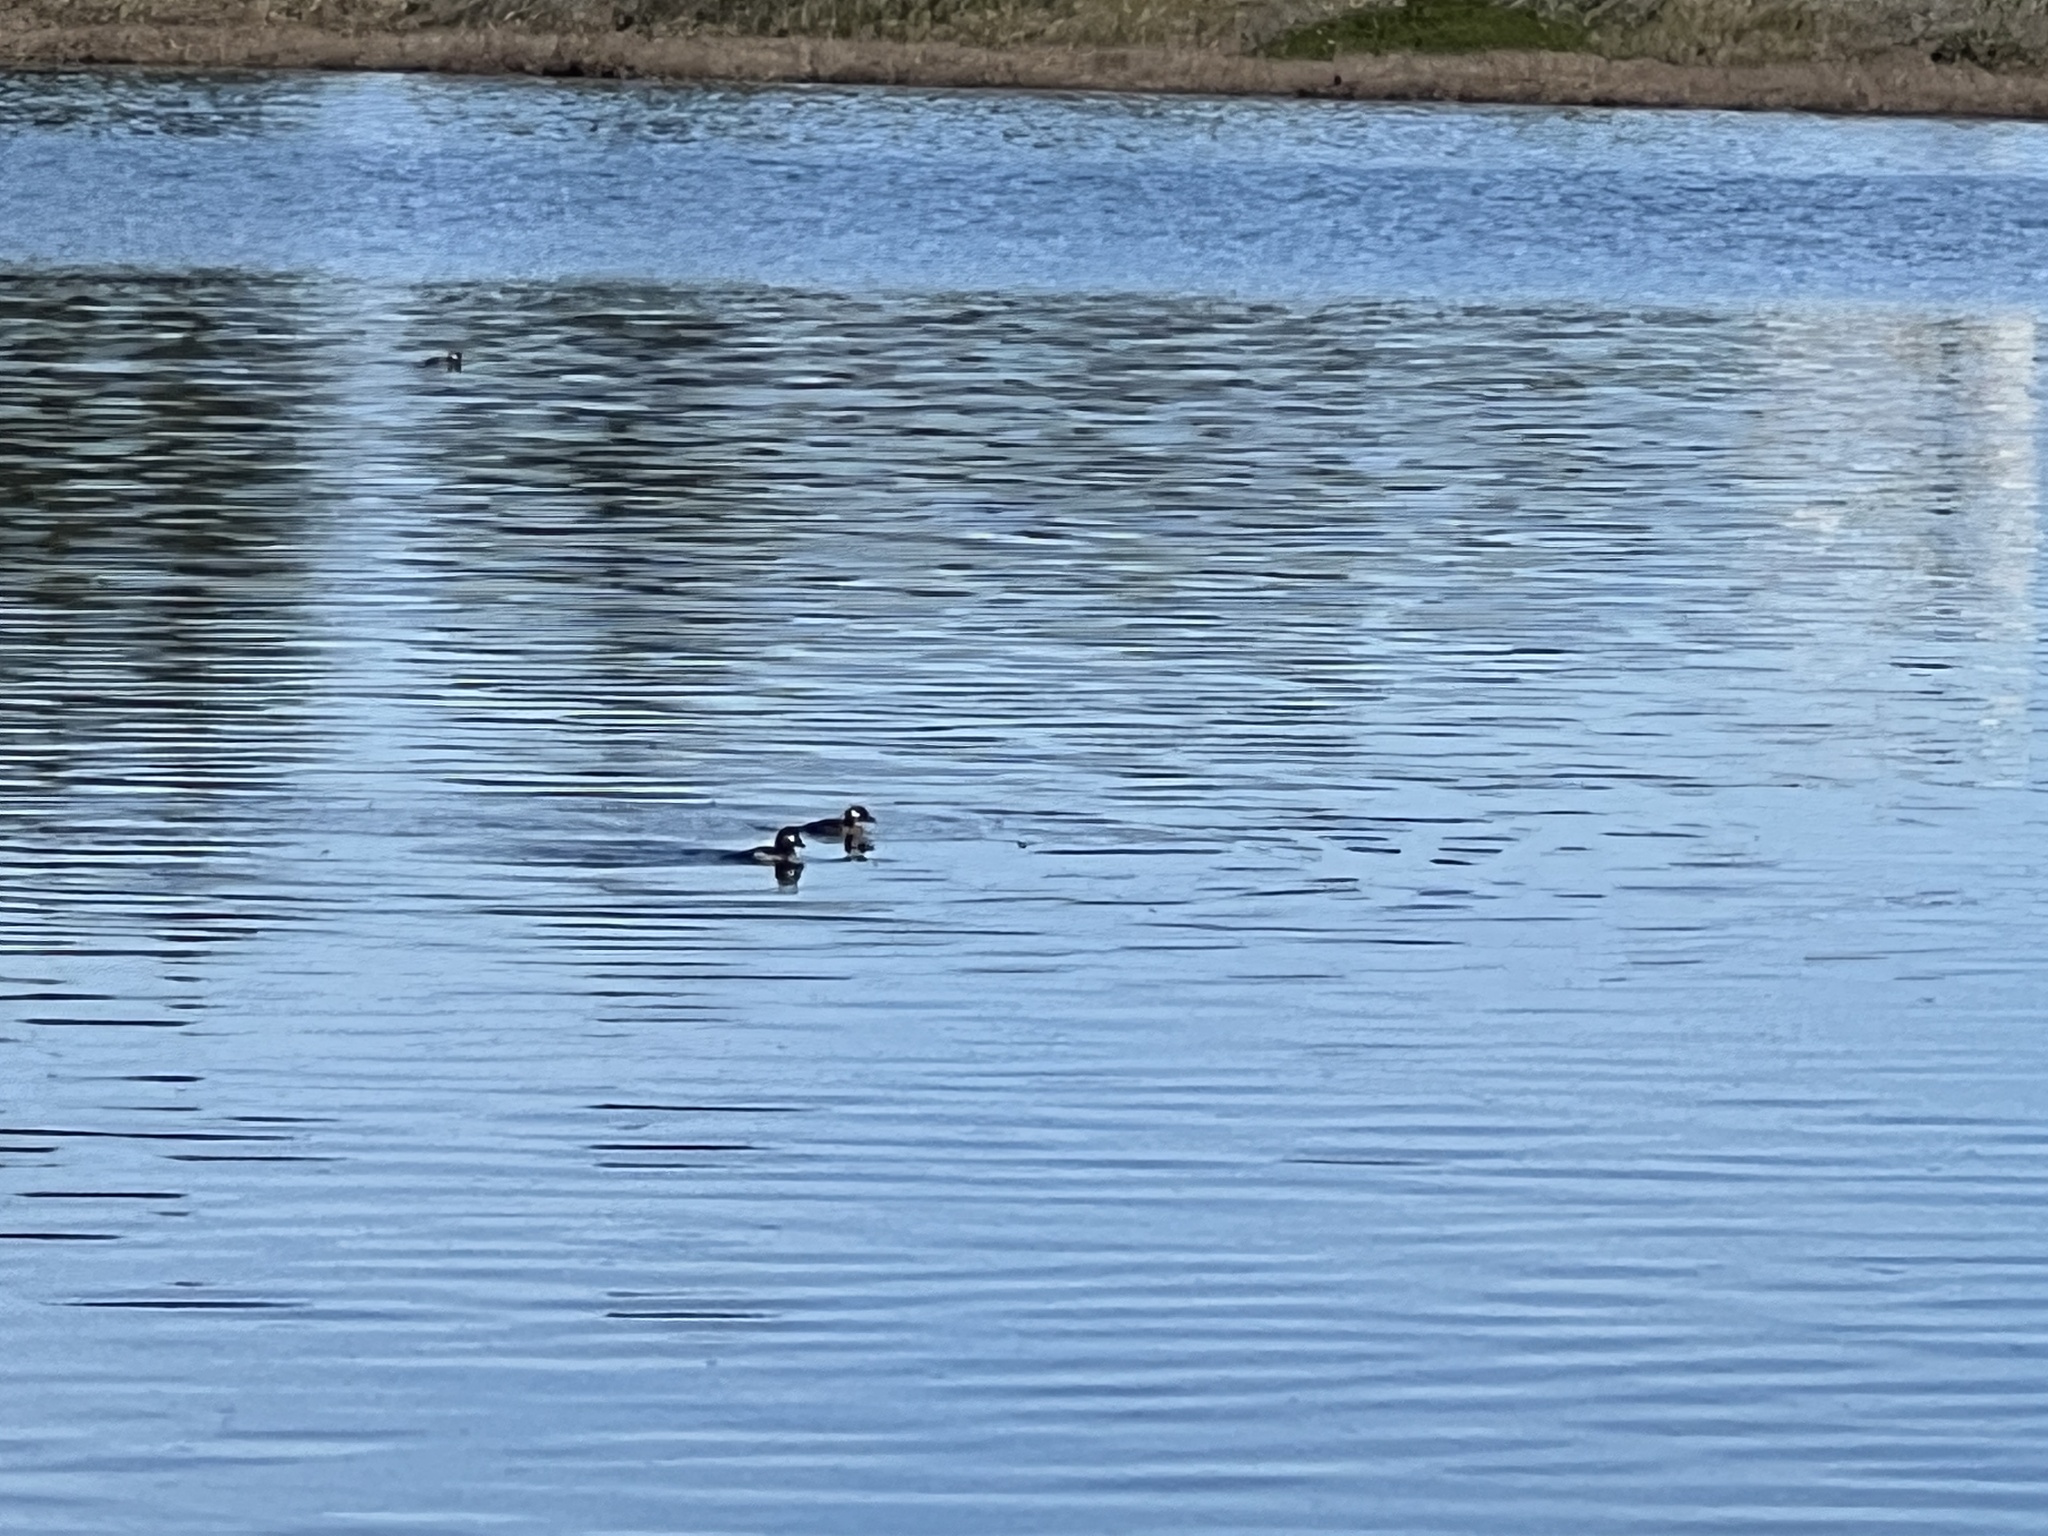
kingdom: Animalia
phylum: Chordata
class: Aves
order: Anseriformes
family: Anatidae
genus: Bucephala
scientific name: Bucephala albeola
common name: Bufflehead
